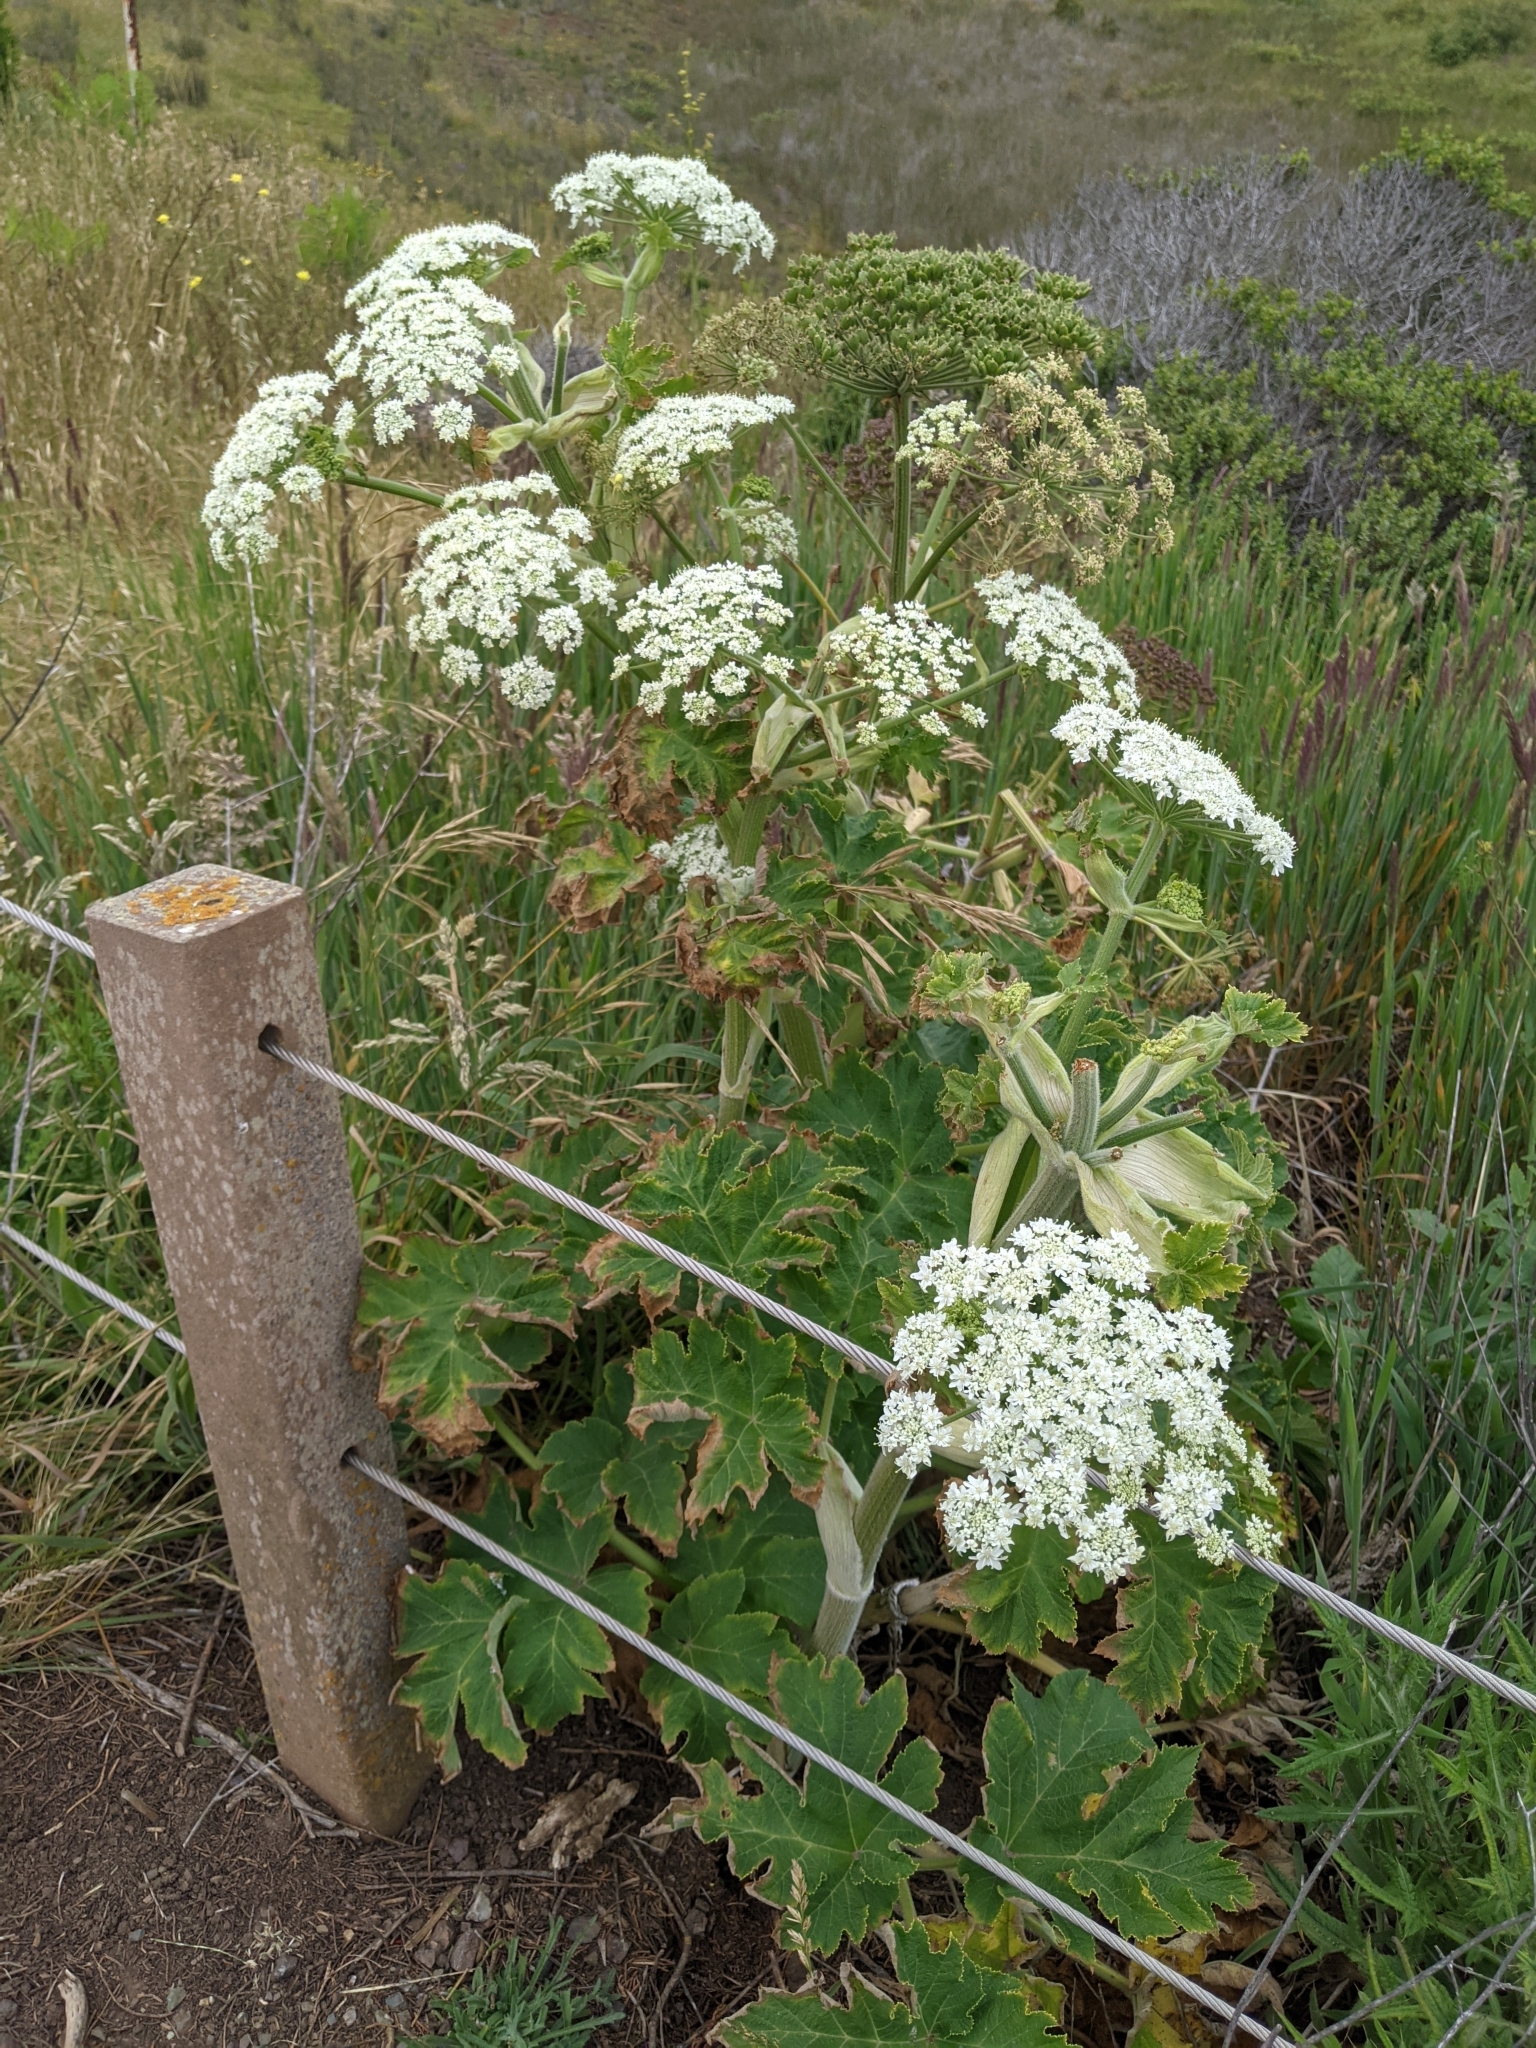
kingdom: Plantae
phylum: Tracheophyta
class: Magnoliopsida
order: Apiales
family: Apiaceae
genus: Heracleum
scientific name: Heracleum maximum
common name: American cow parsnip
